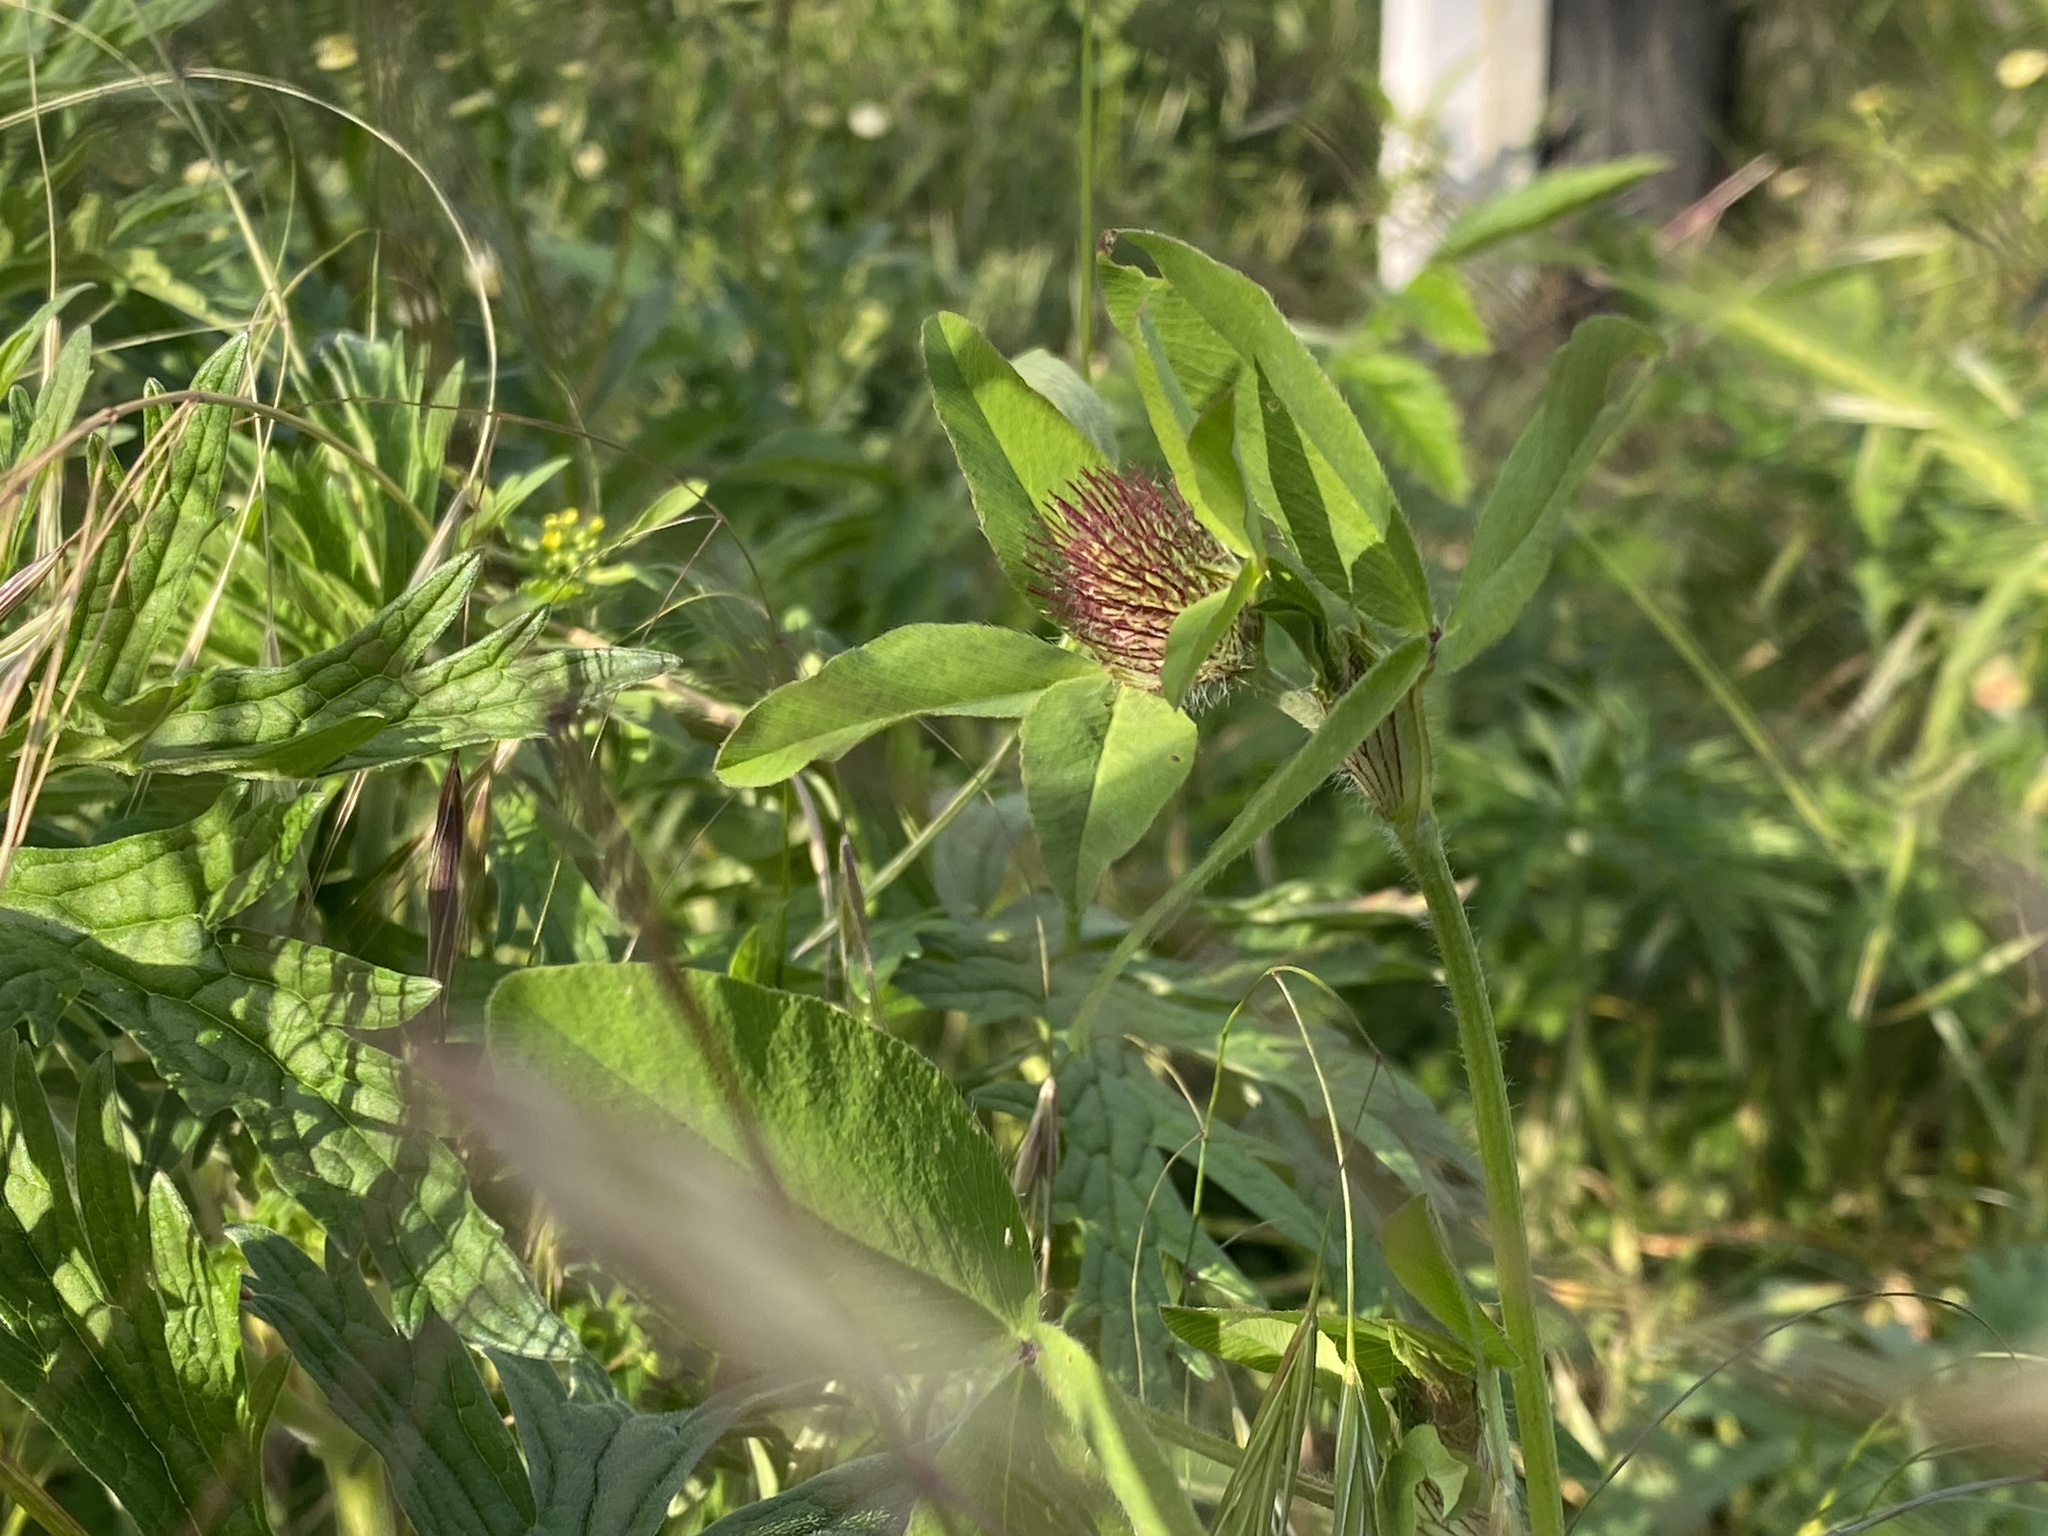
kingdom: Plantae
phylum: Tracheophyta
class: Magnoliopsida
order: Fabales
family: Fabaceae
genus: Trifolium
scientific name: Trifolium pratense
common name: Red clover
